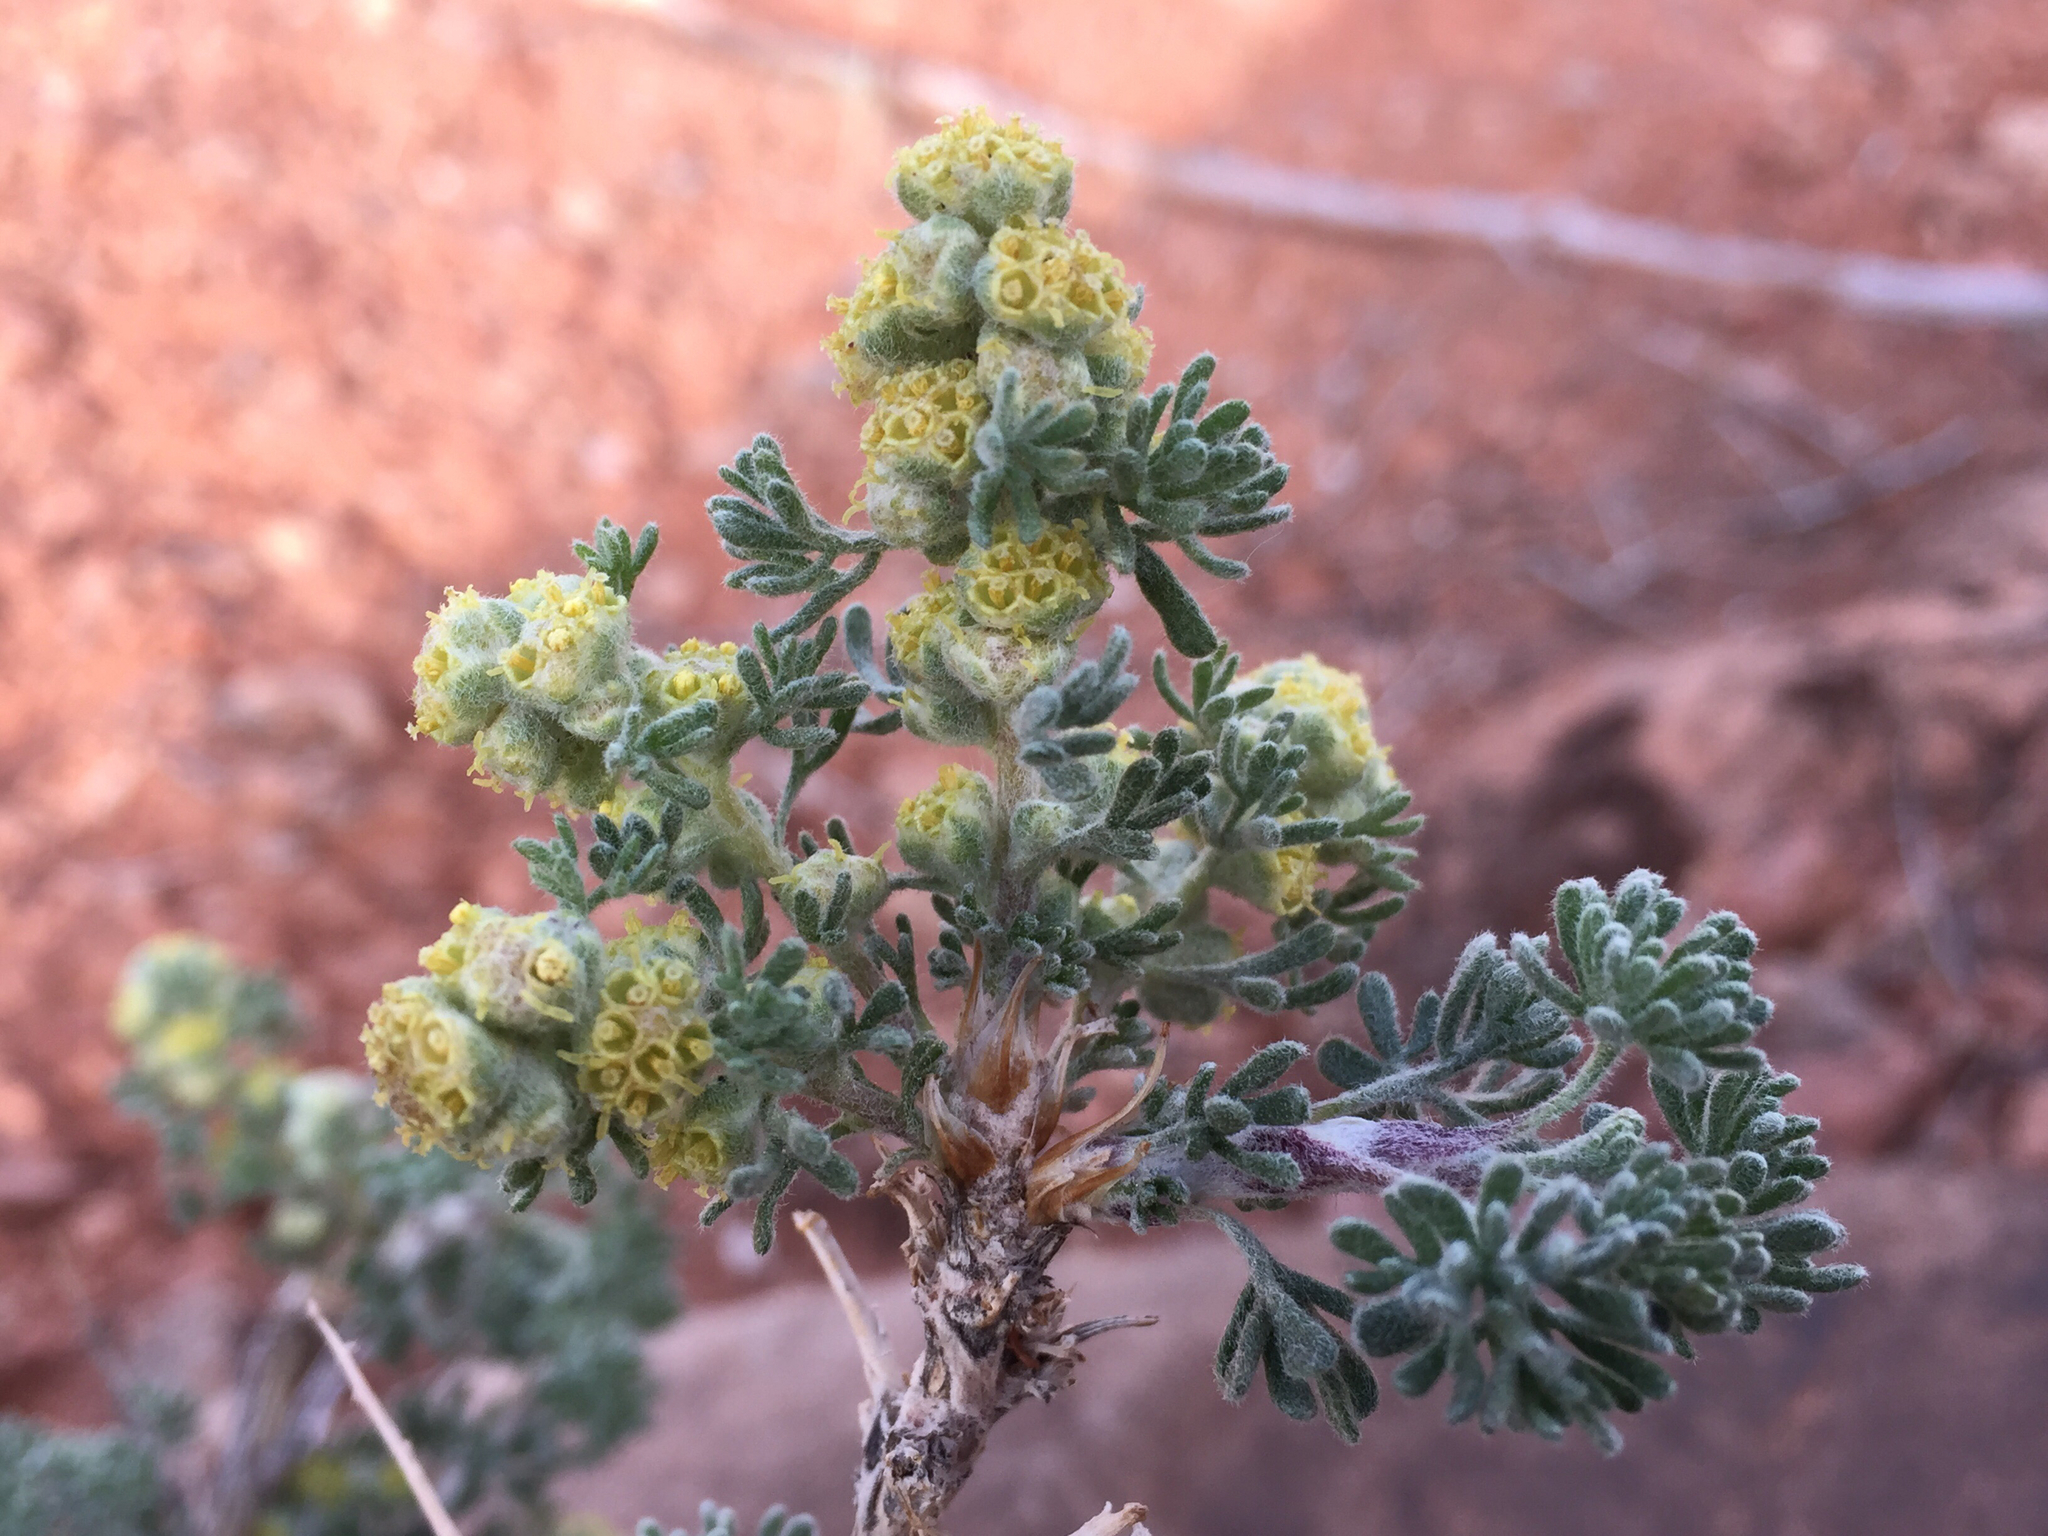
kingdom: Plantae
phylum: Tracheophyta
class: Magnoliopsida
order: Asterales
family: Asteraceae
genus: Artemisia
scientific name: Artemisia spinescens
